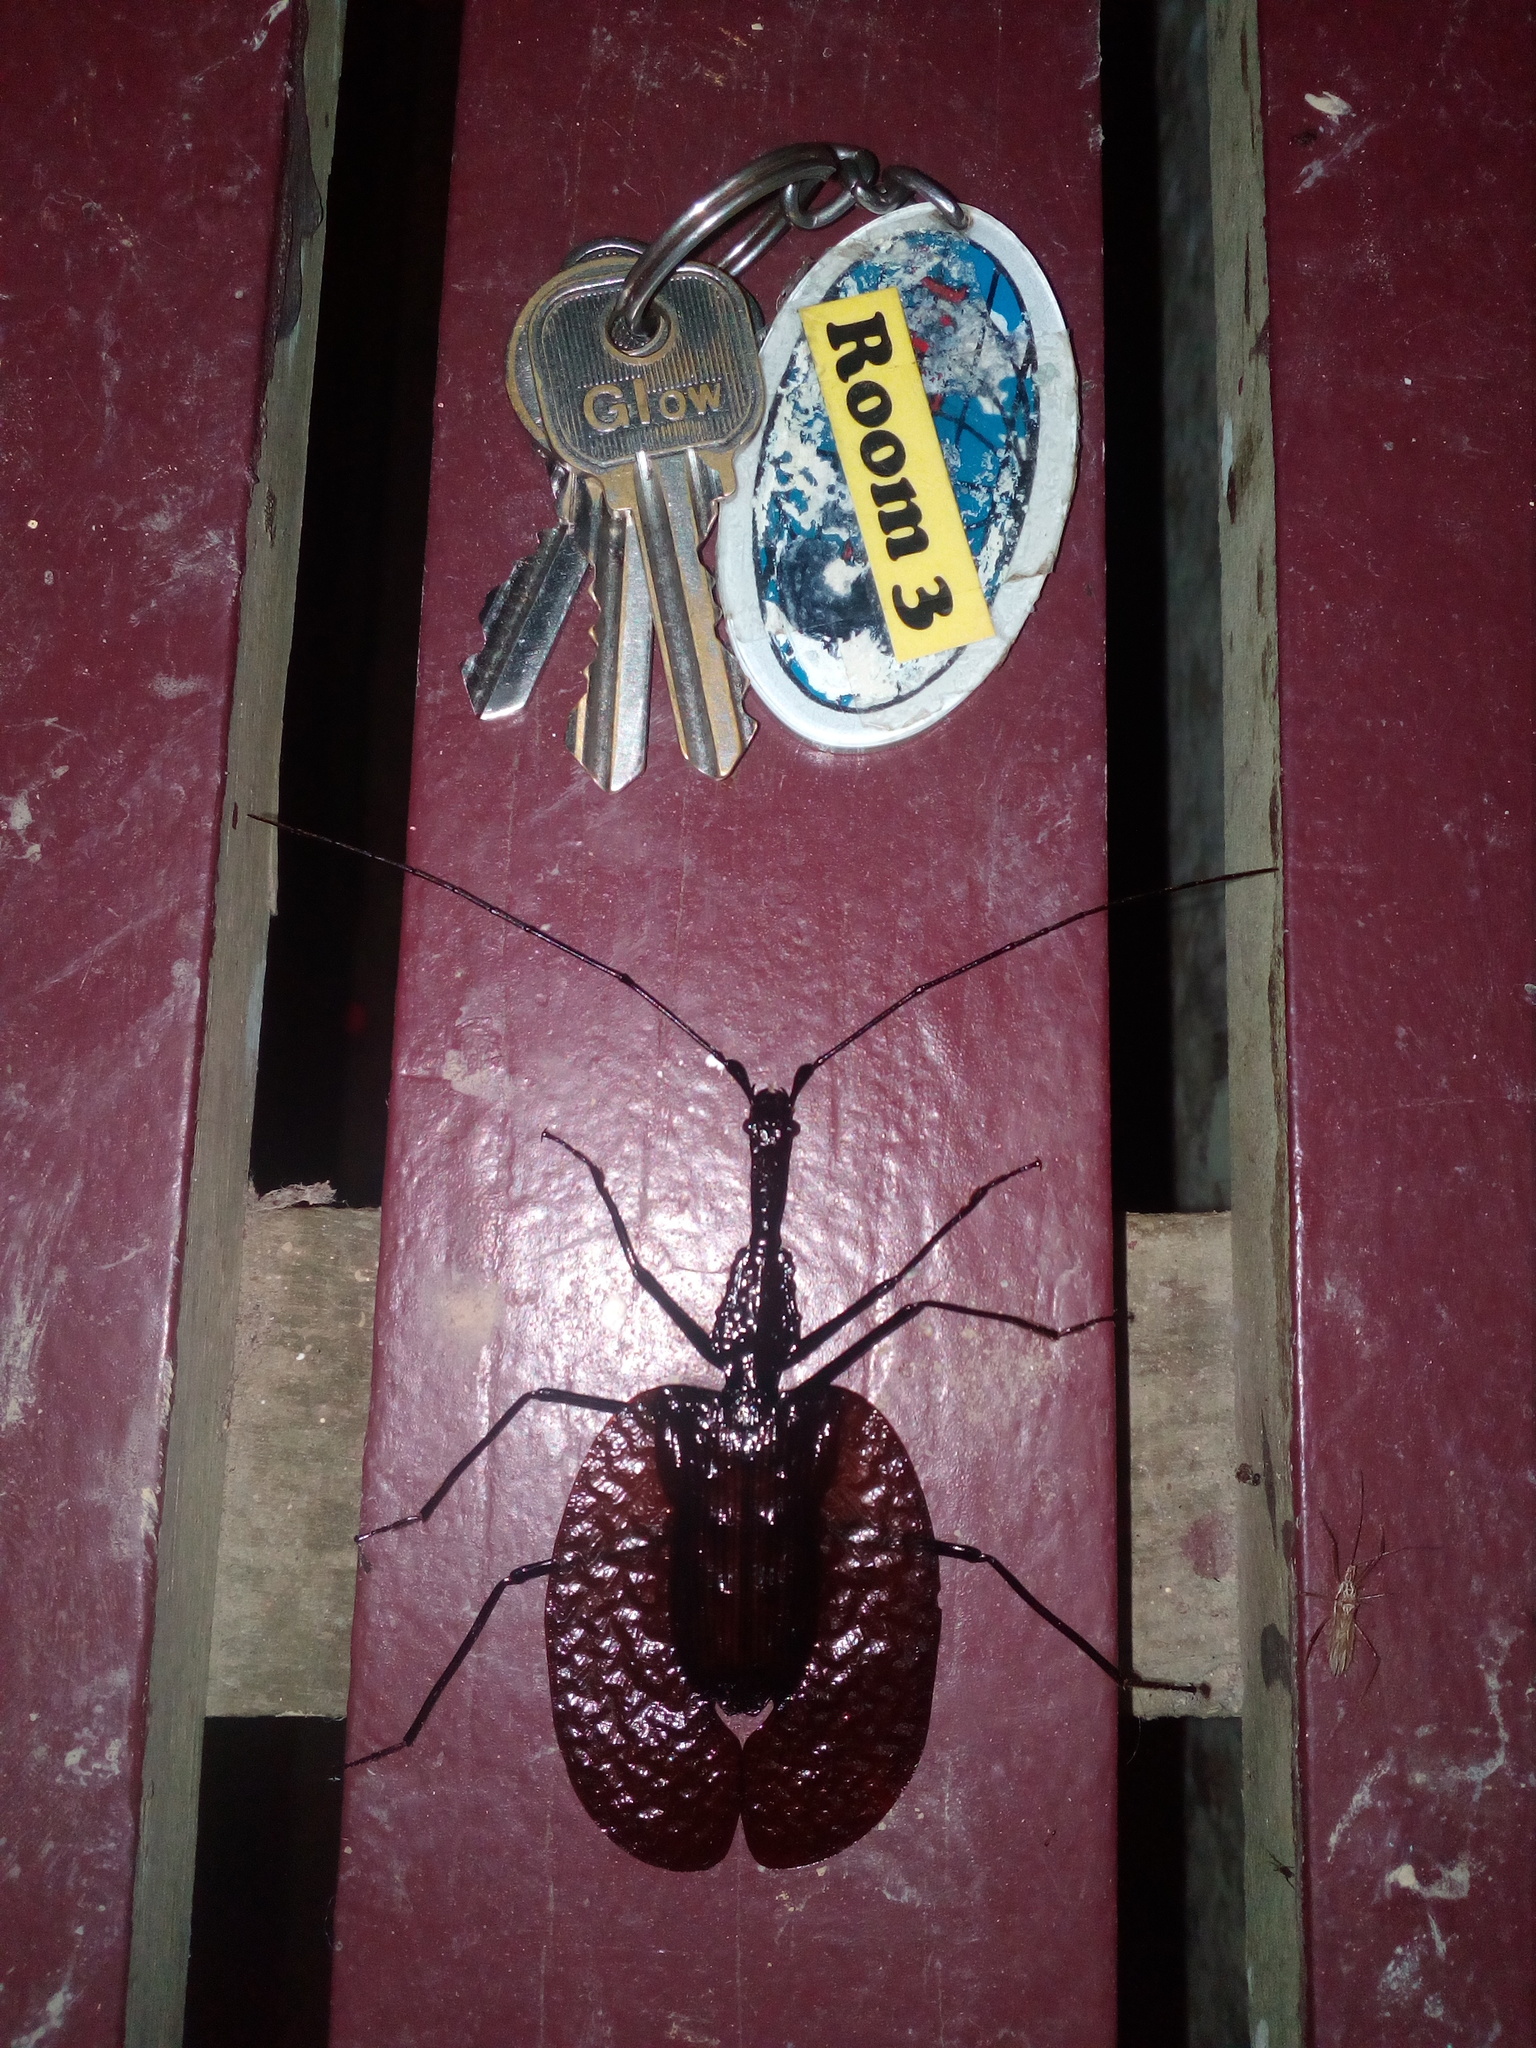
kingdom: Animalia
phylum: Arthropoda
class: Insecta
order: Coleoptera
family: Carabidae
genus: Mormolyce
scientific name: Mormolyce phyllodes
